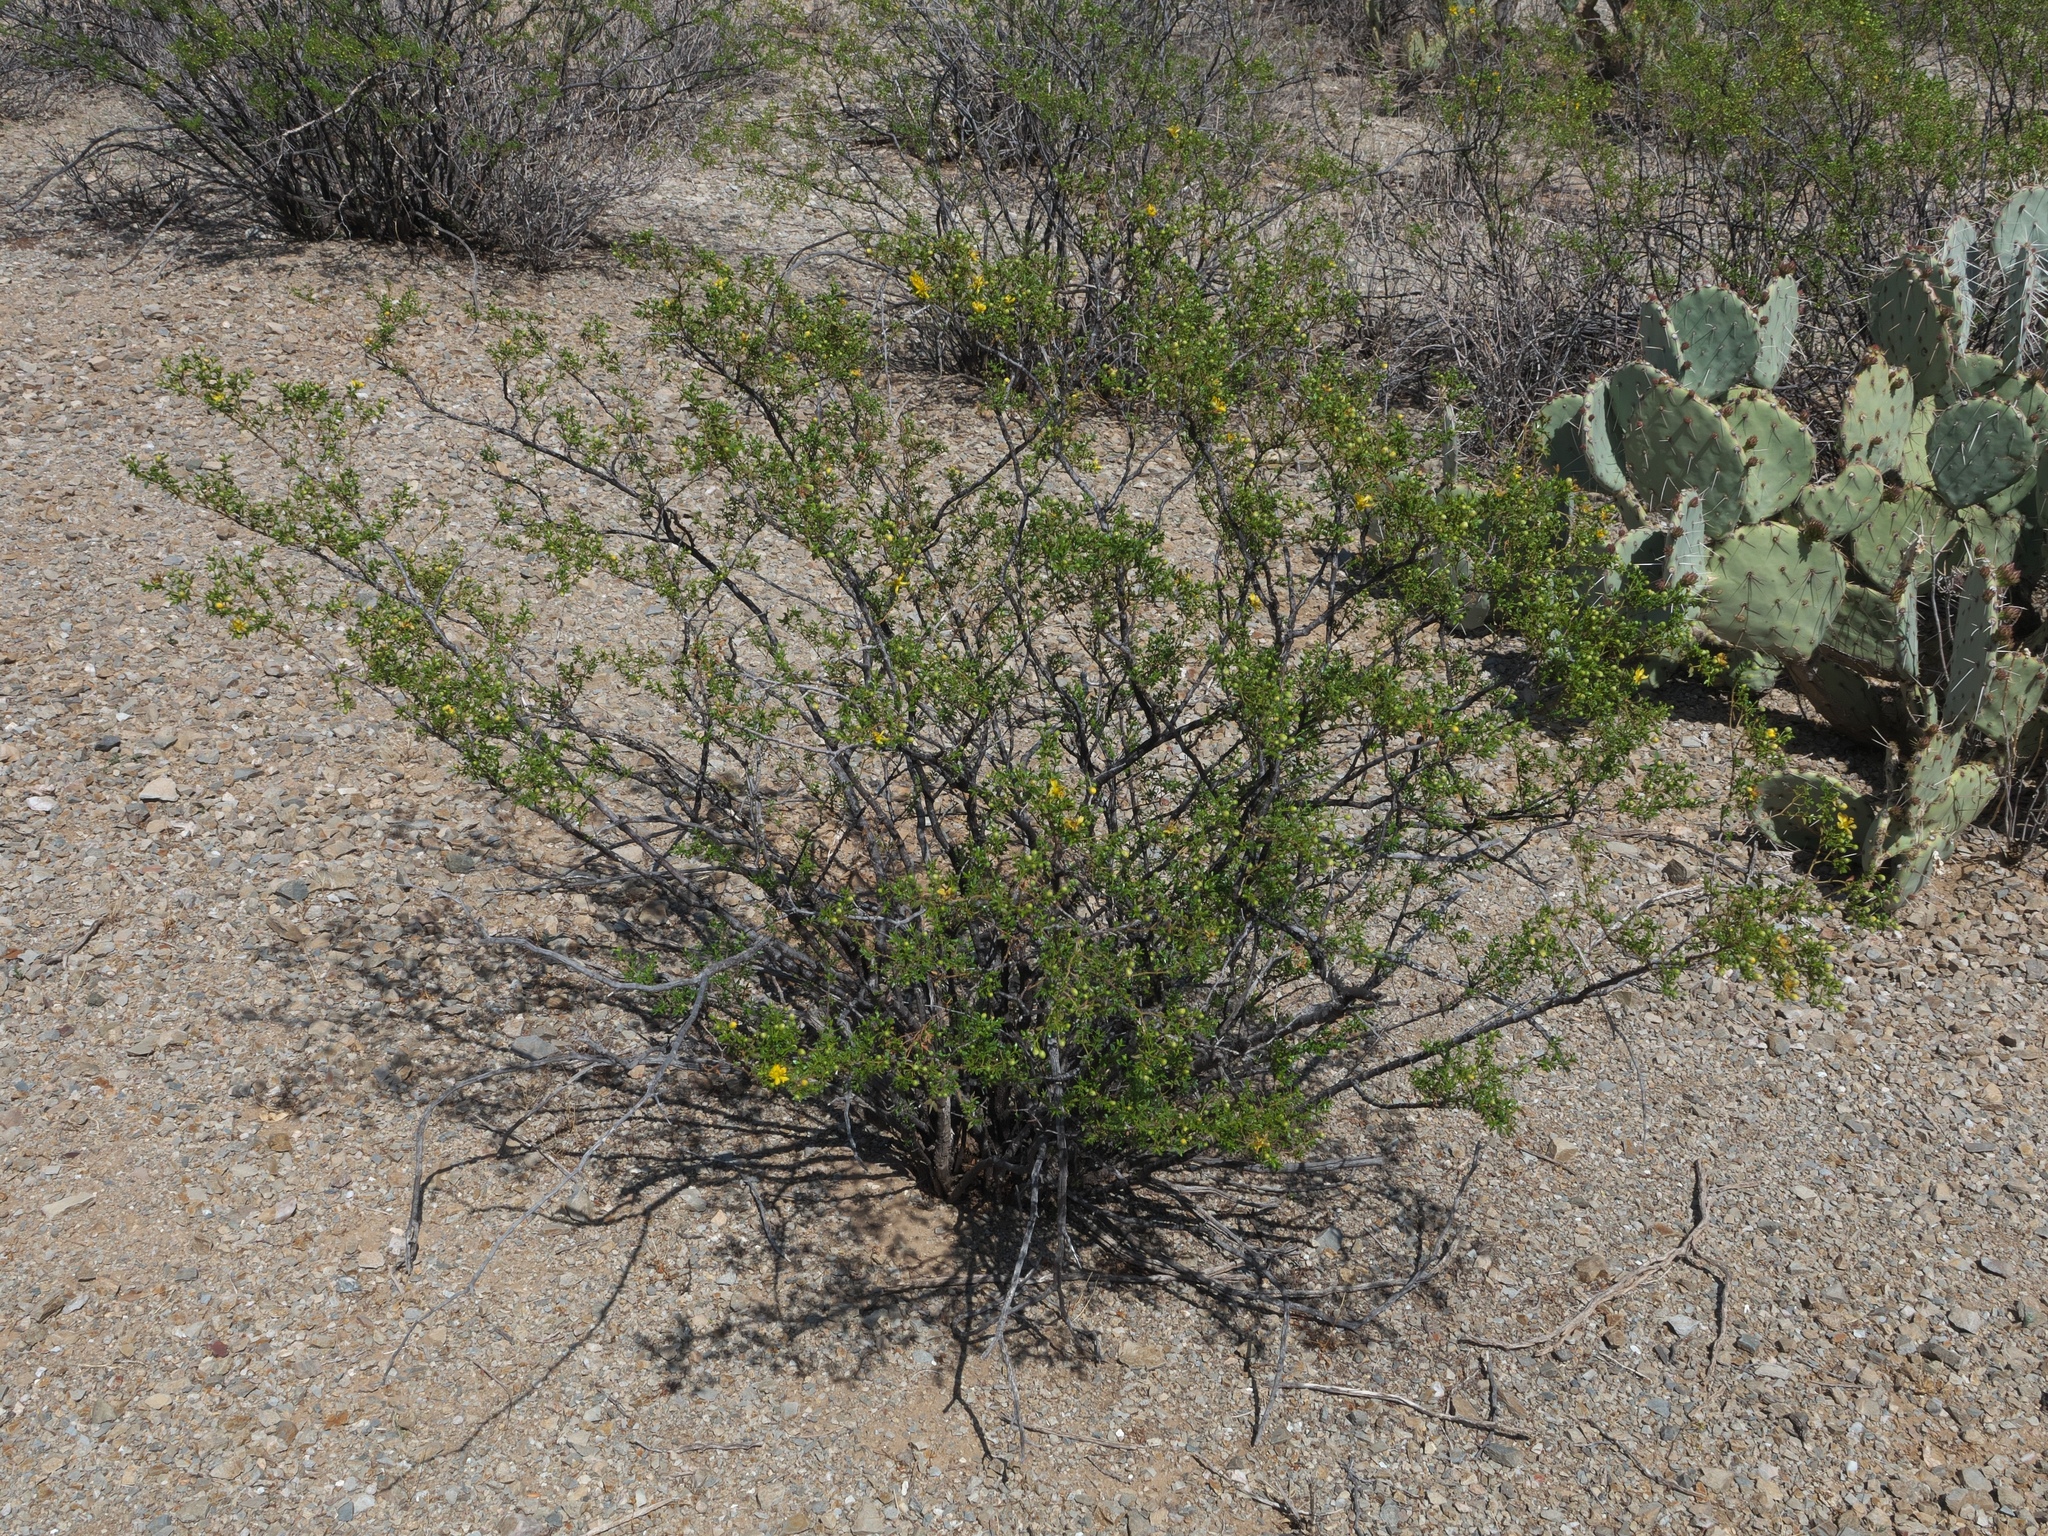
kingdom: Plantae
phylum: Tracheophyta
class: Magnoliopsida
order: Zygophyllales
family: Zygophyllaceae
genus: Larrea
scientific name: Larrea tridentata
